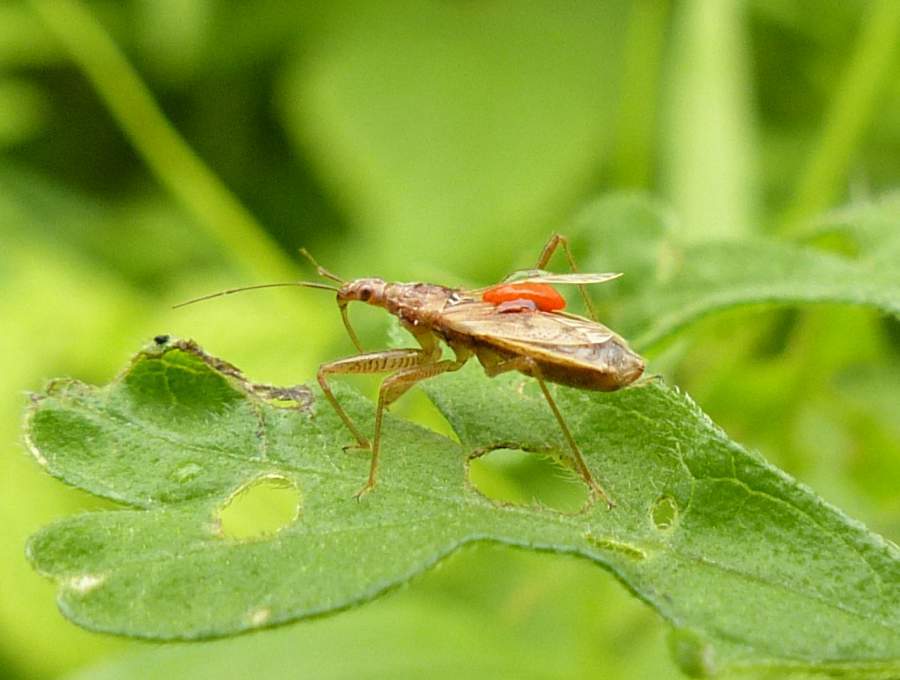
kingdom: Animalia
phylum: Arthropoda
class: Insecta
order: Hemiptera
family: Nabidae
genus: Nabis
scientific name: Nabis rufusculus
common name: Short-winged nabis
